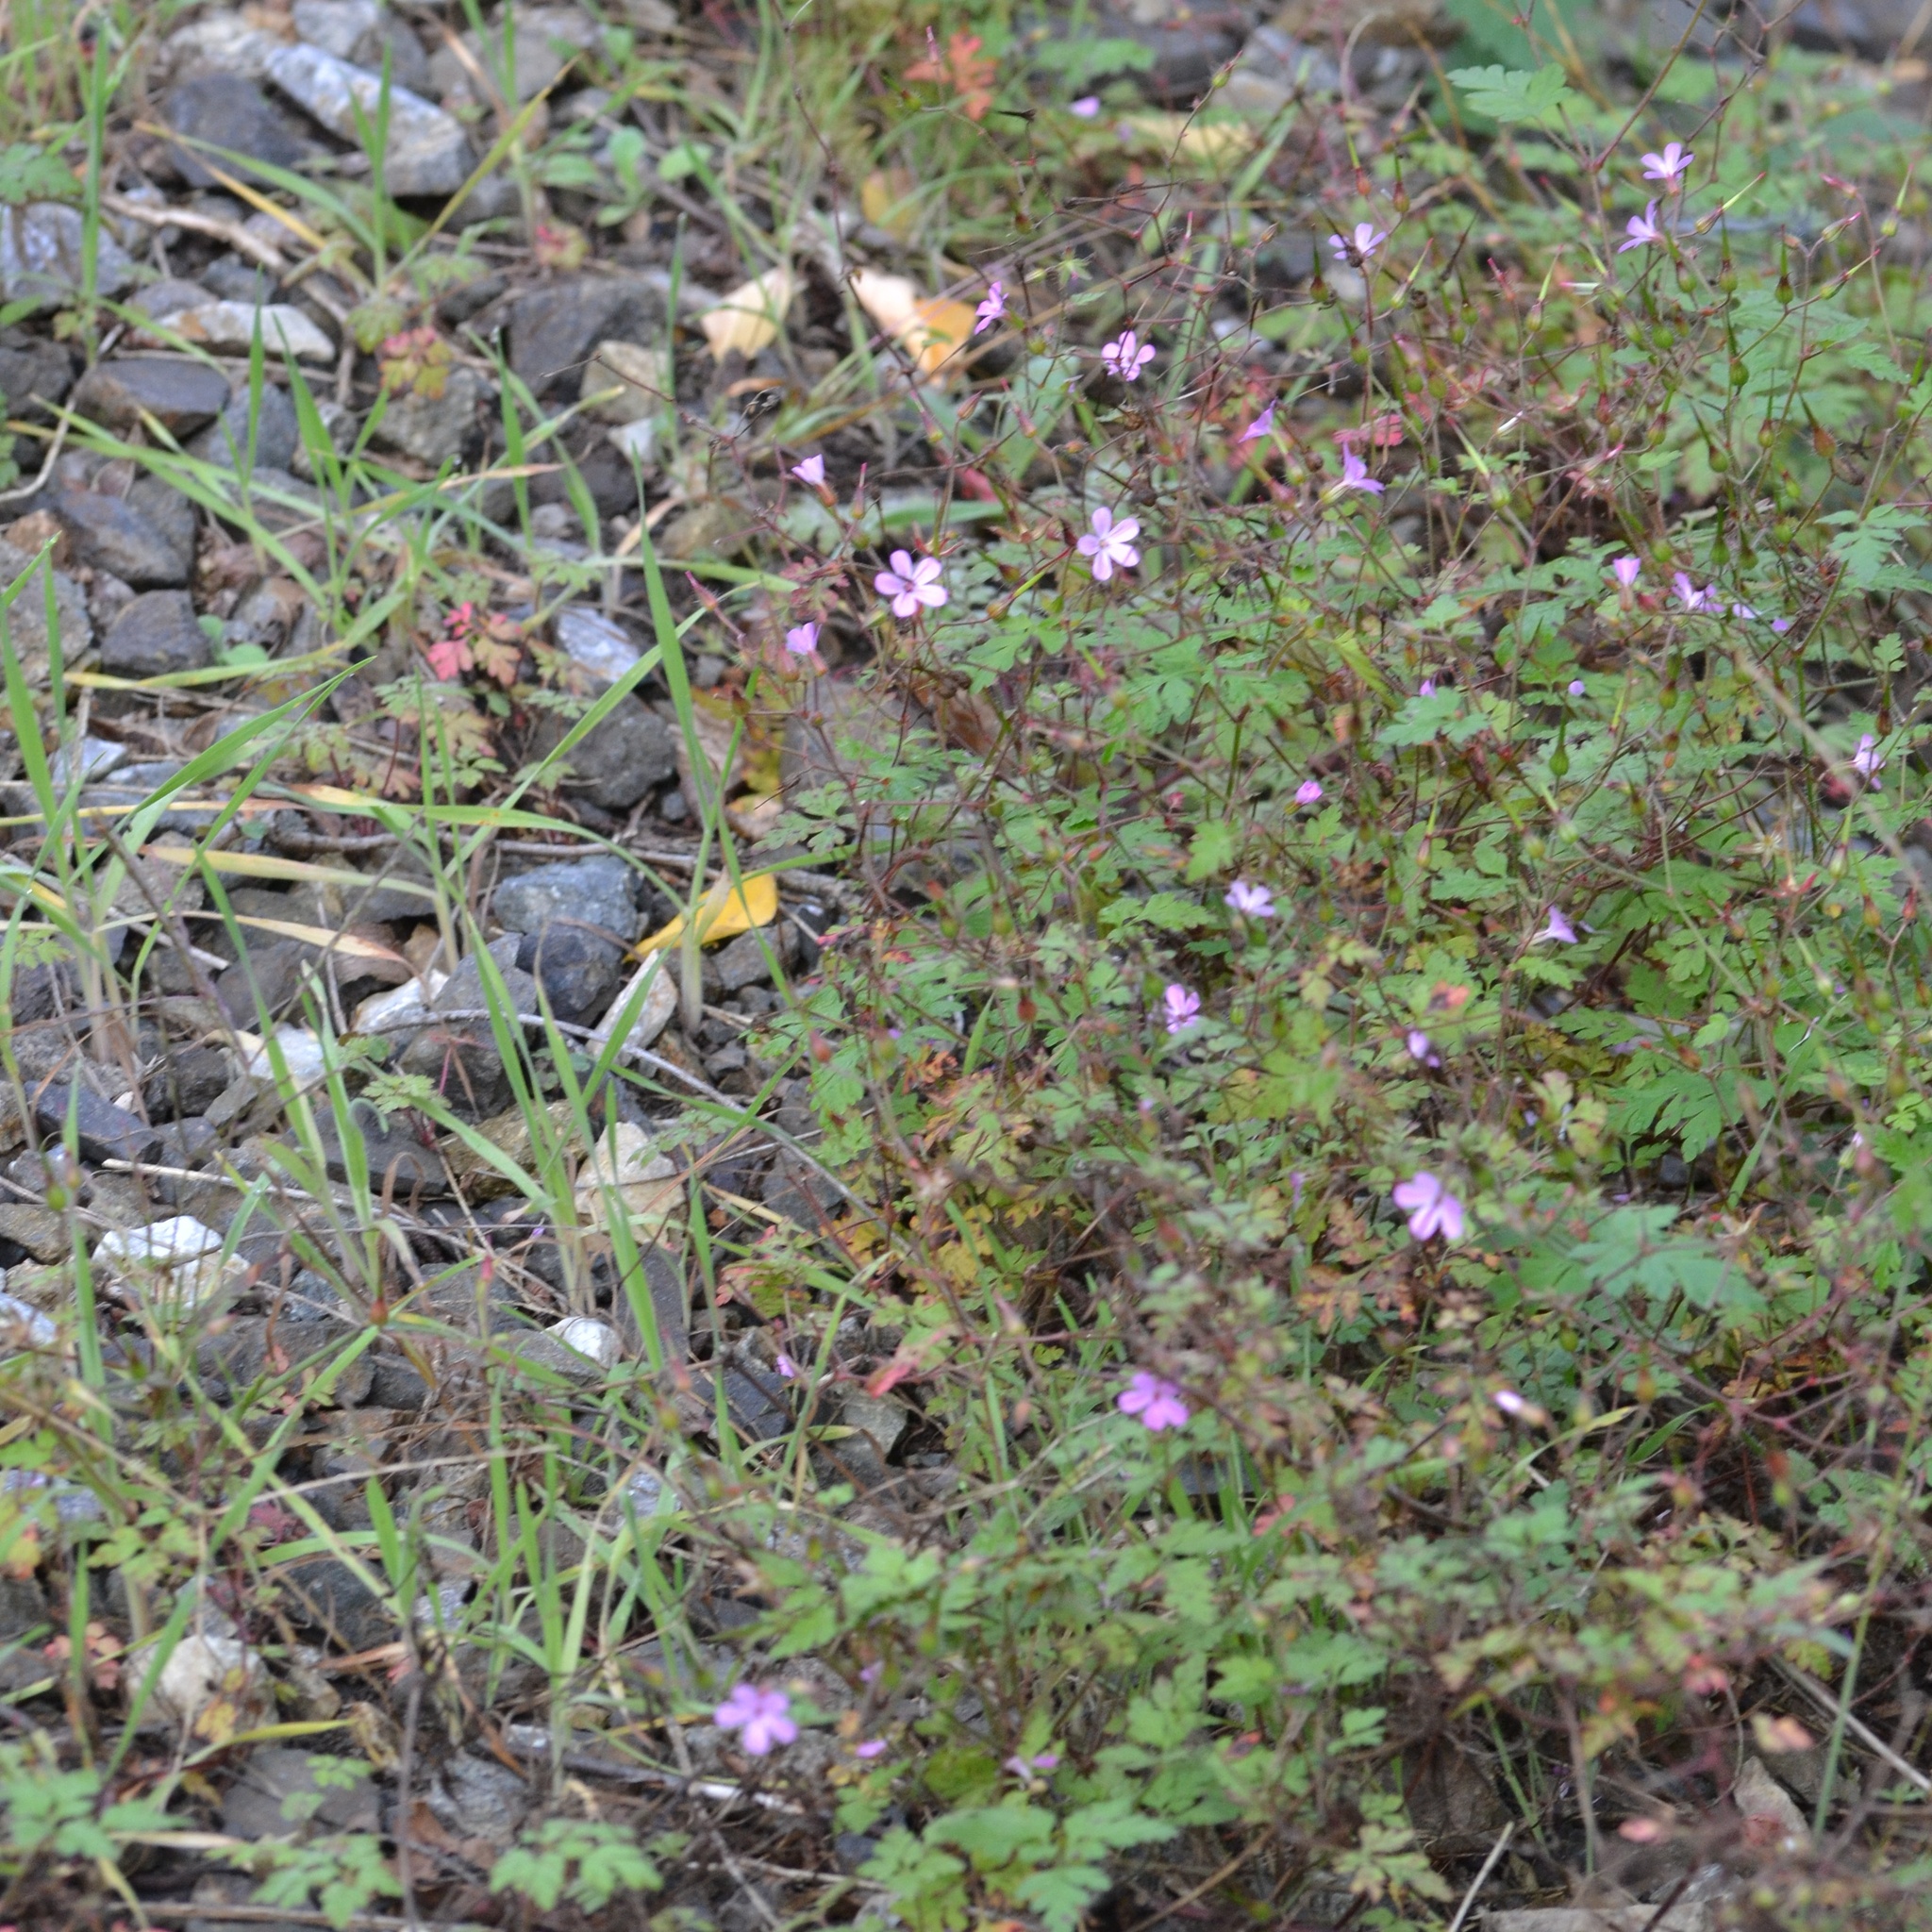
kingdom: Plantae
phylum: Tracheophyta
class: Magnoliopsida
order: Geraniales
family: Geraniaceae
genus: Geranium
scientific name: Geranium robertianum
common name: Herb-robert
